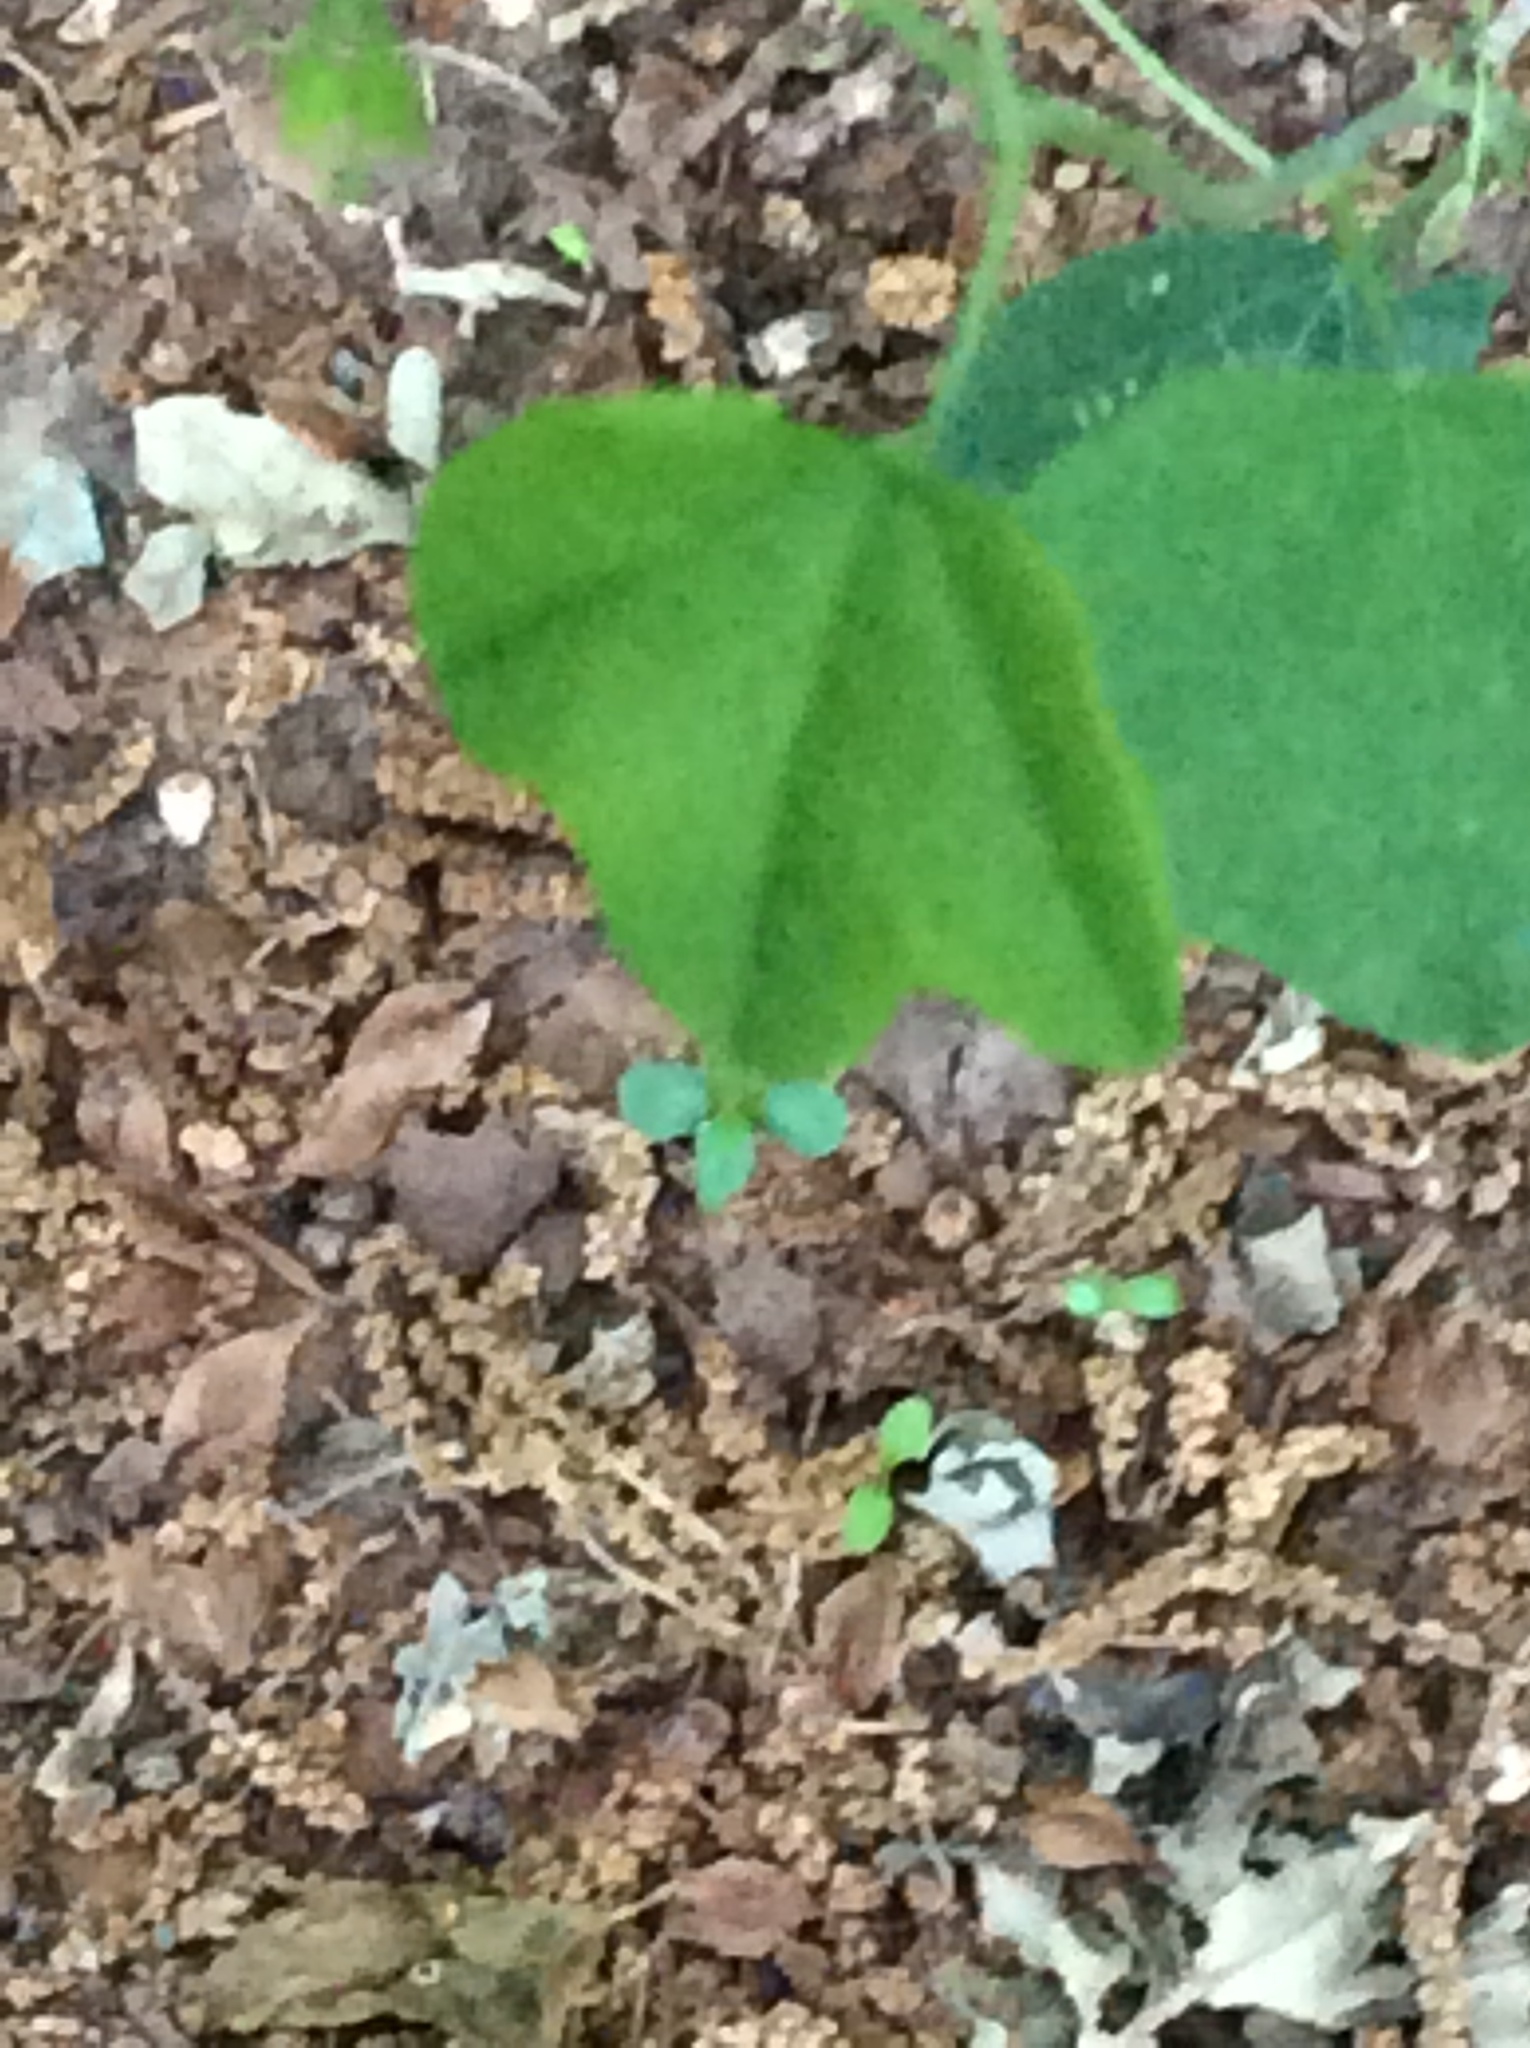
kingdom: Plantae
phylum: Tracheophyta
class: Magnoliopsida
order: Malpighiales
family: Passifloraceae
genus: Passiflora
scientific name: Passiflora lutea
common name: Yellow passionflower
